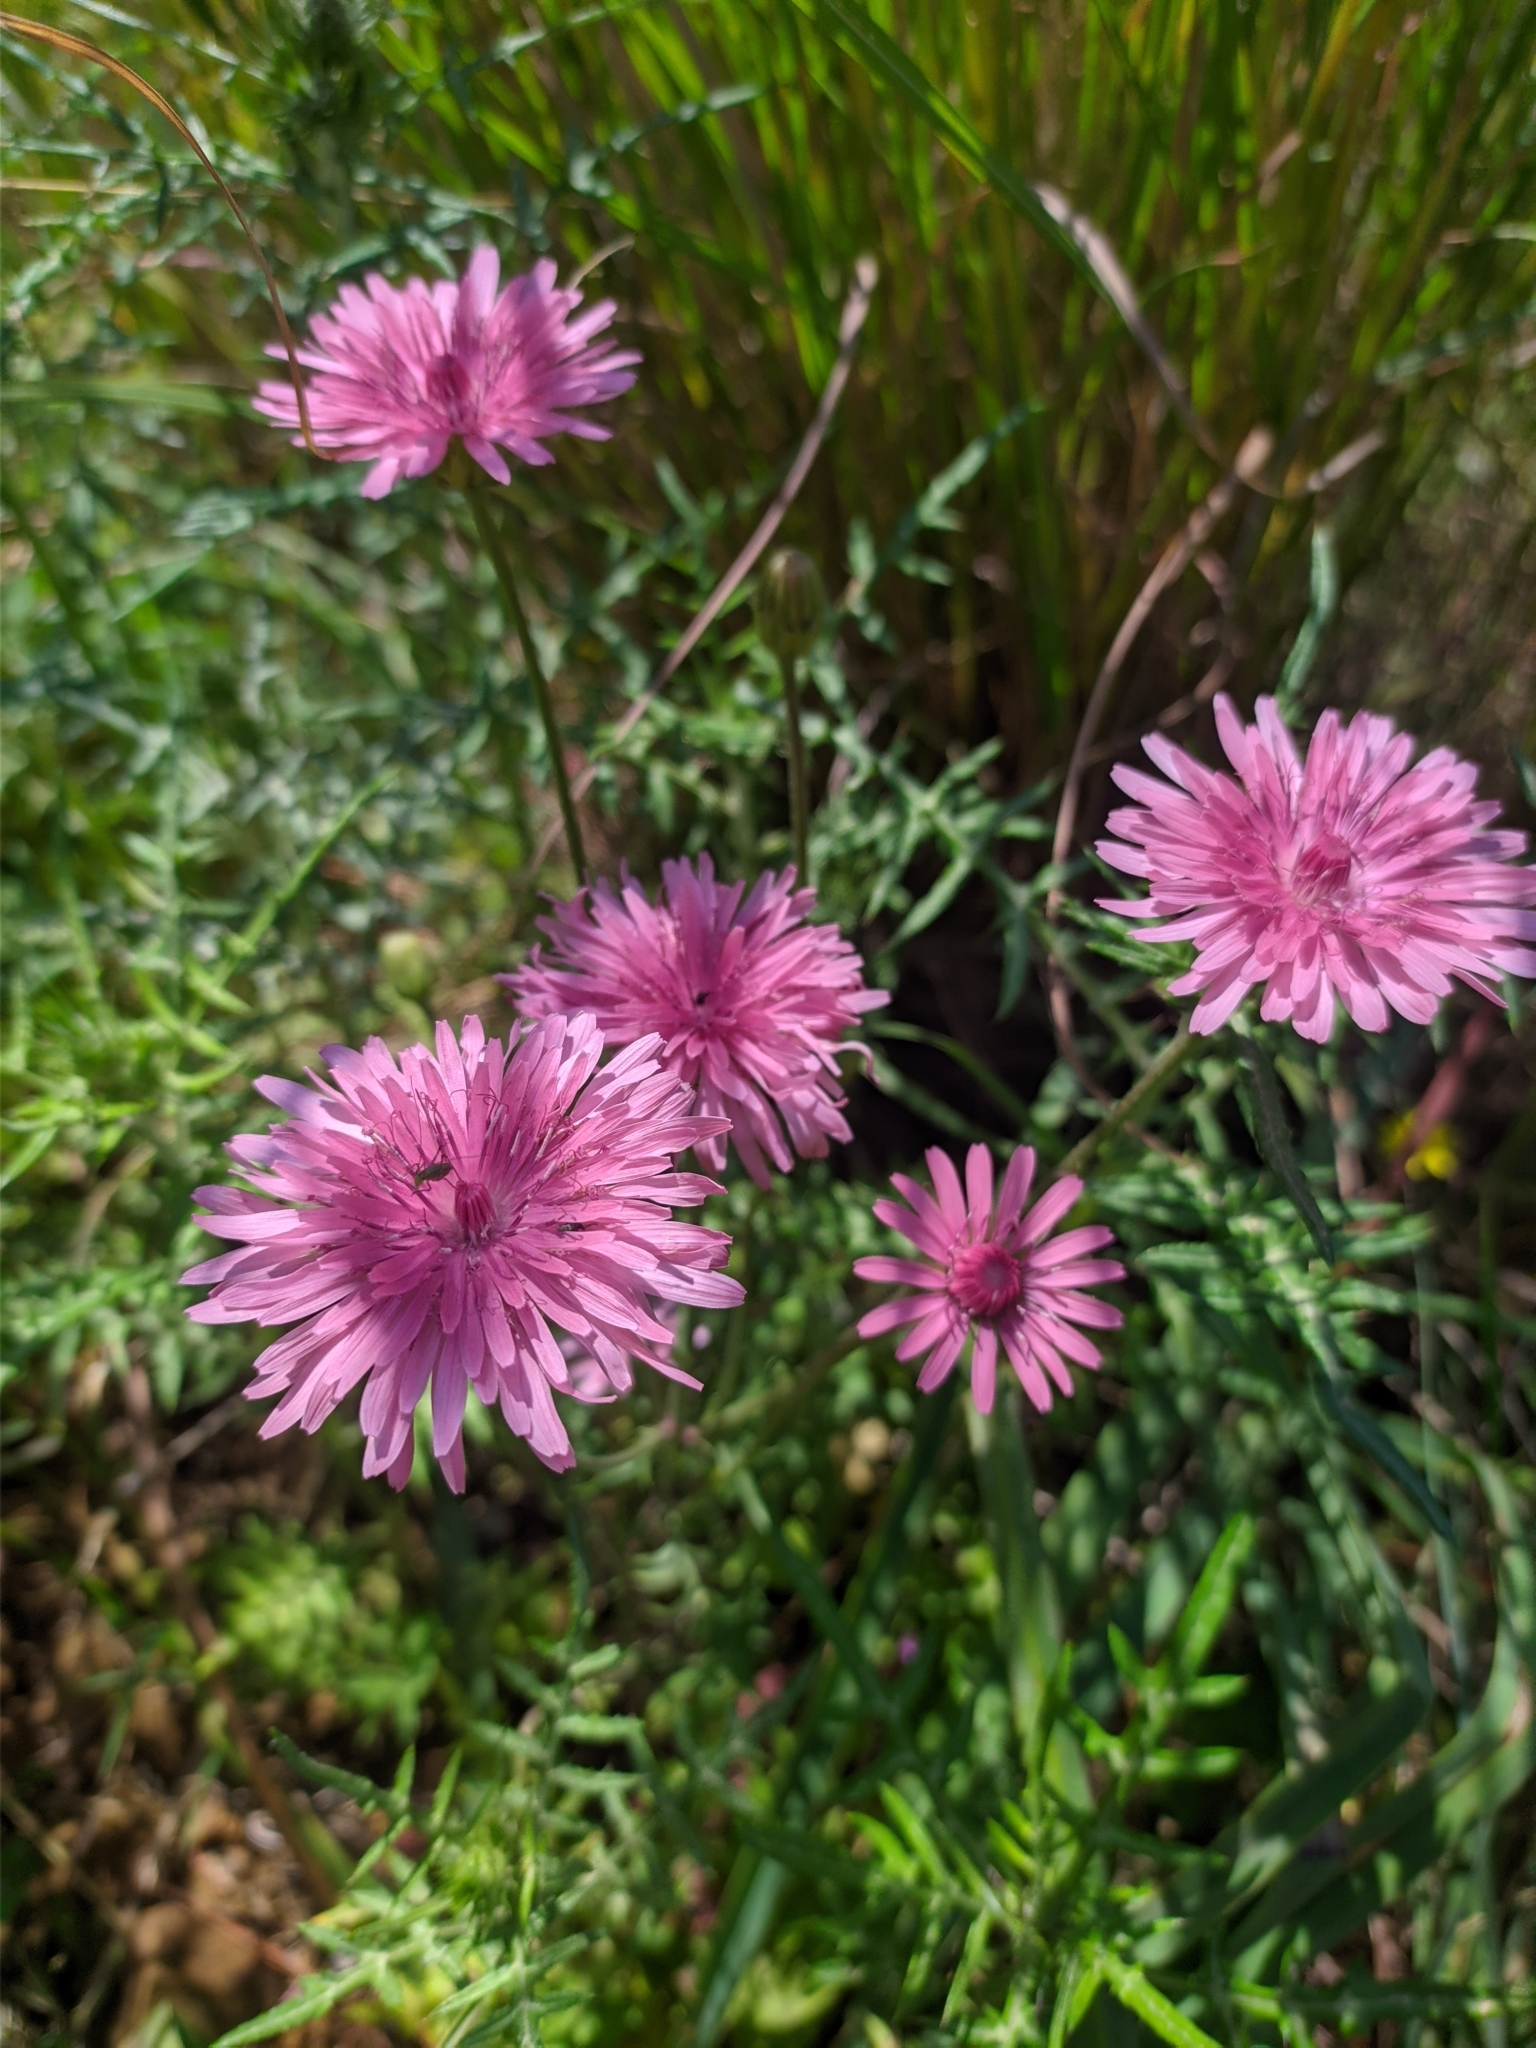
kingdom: Plantae
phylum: Tracheophyta
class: Magnoliopsida
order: Asterales
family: Asteraceae
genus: Crepis
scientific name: Crepis rubra
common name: Pink hawk's-beard
